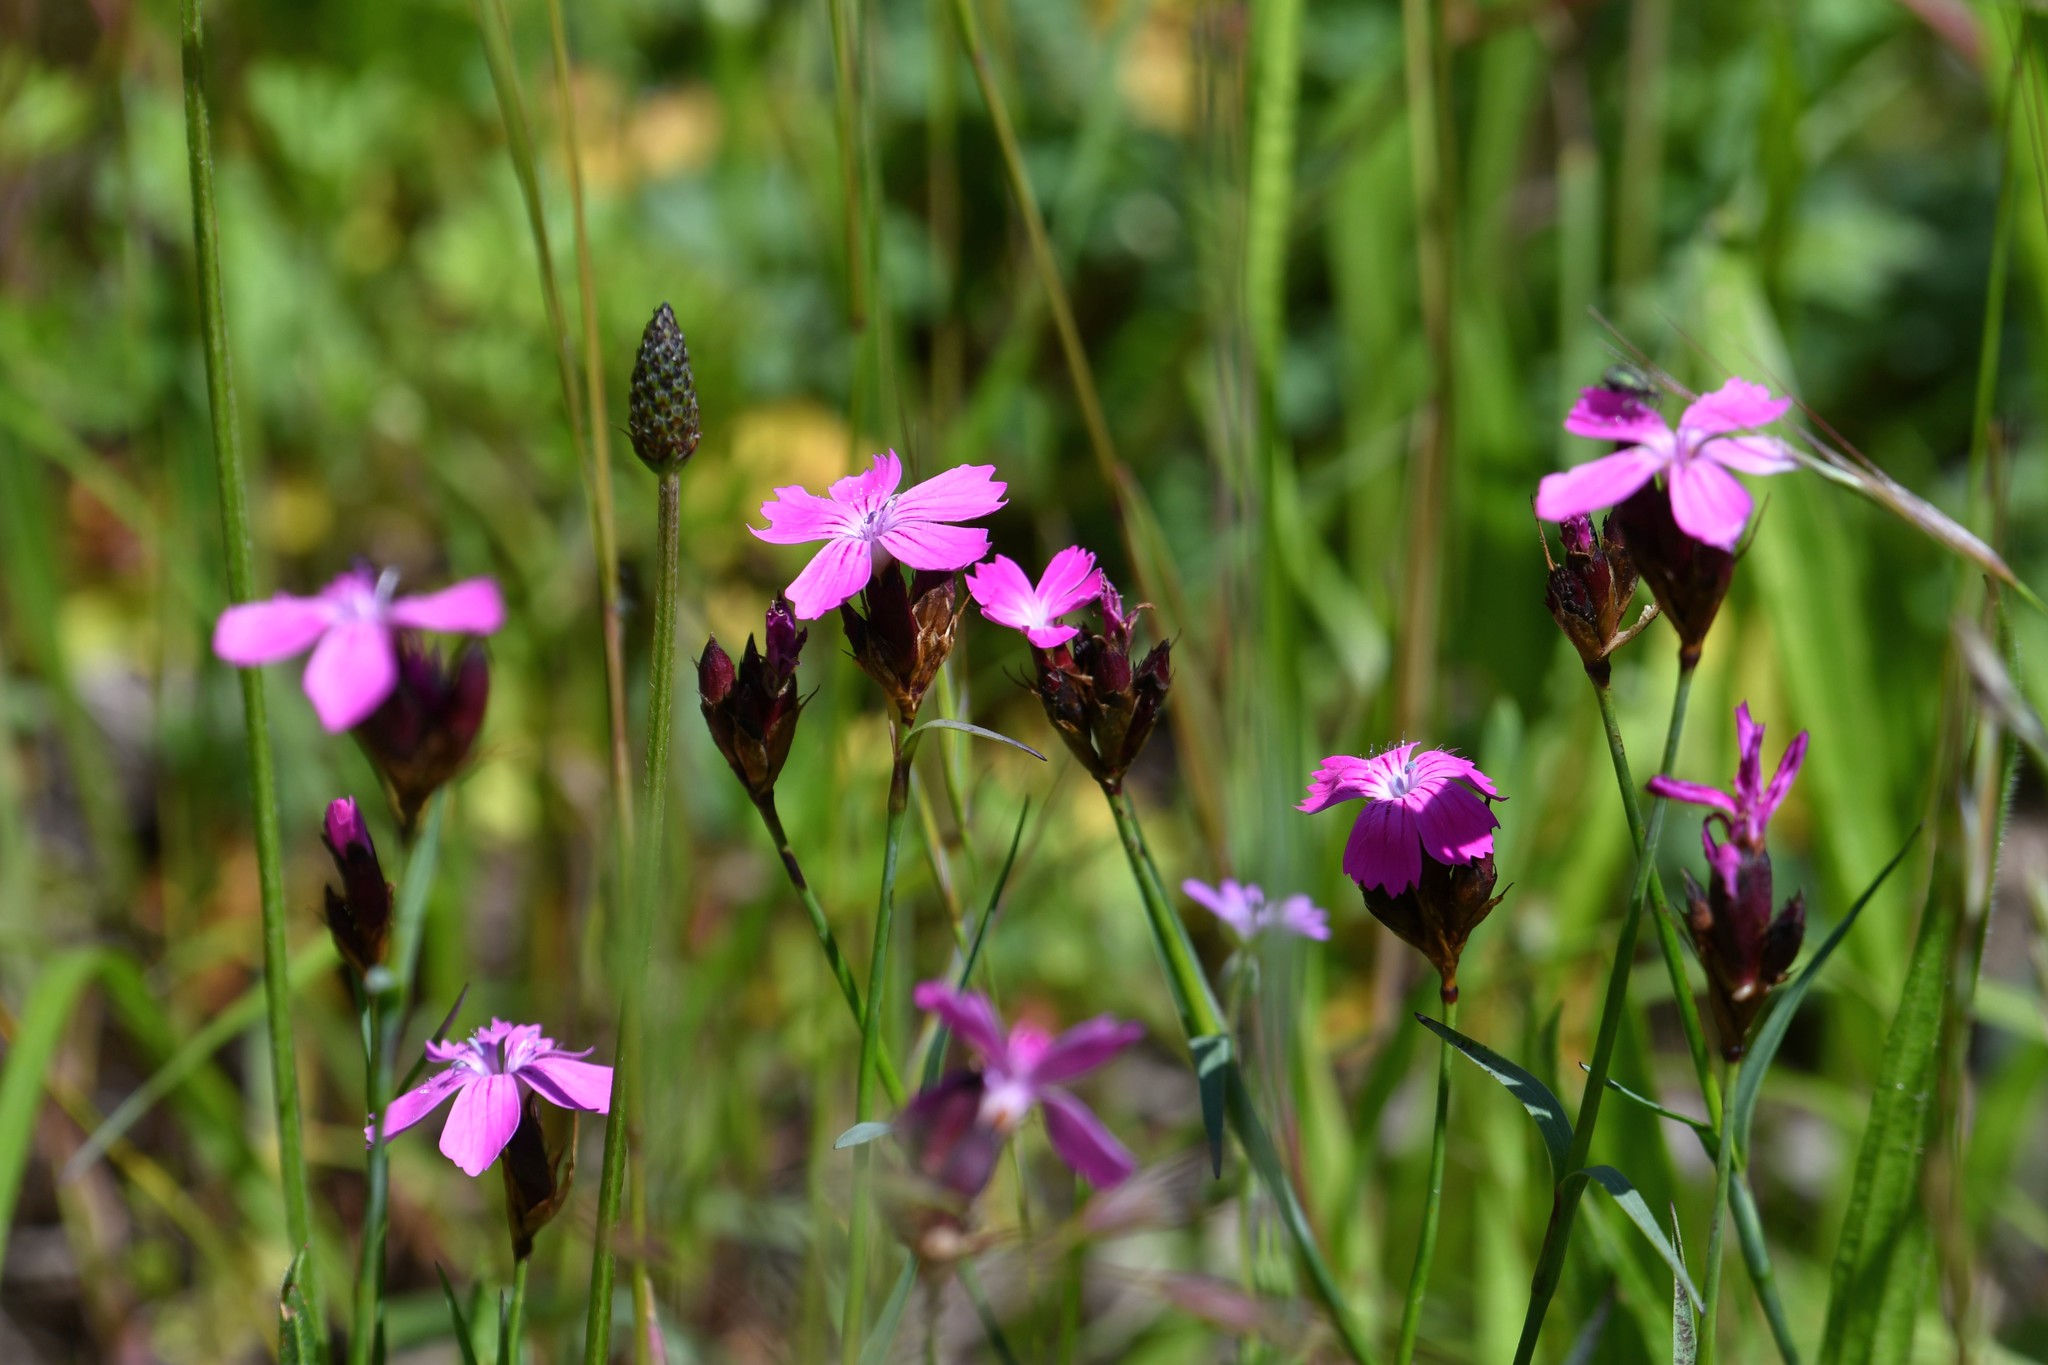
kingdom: Plantae
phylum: Tracheophyta
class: Magnoliopsida
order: Caryophyllales
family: Caryophyllaceae
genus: Dianthus
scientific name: Dianthus carthusianorum
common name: Carthusian pink
